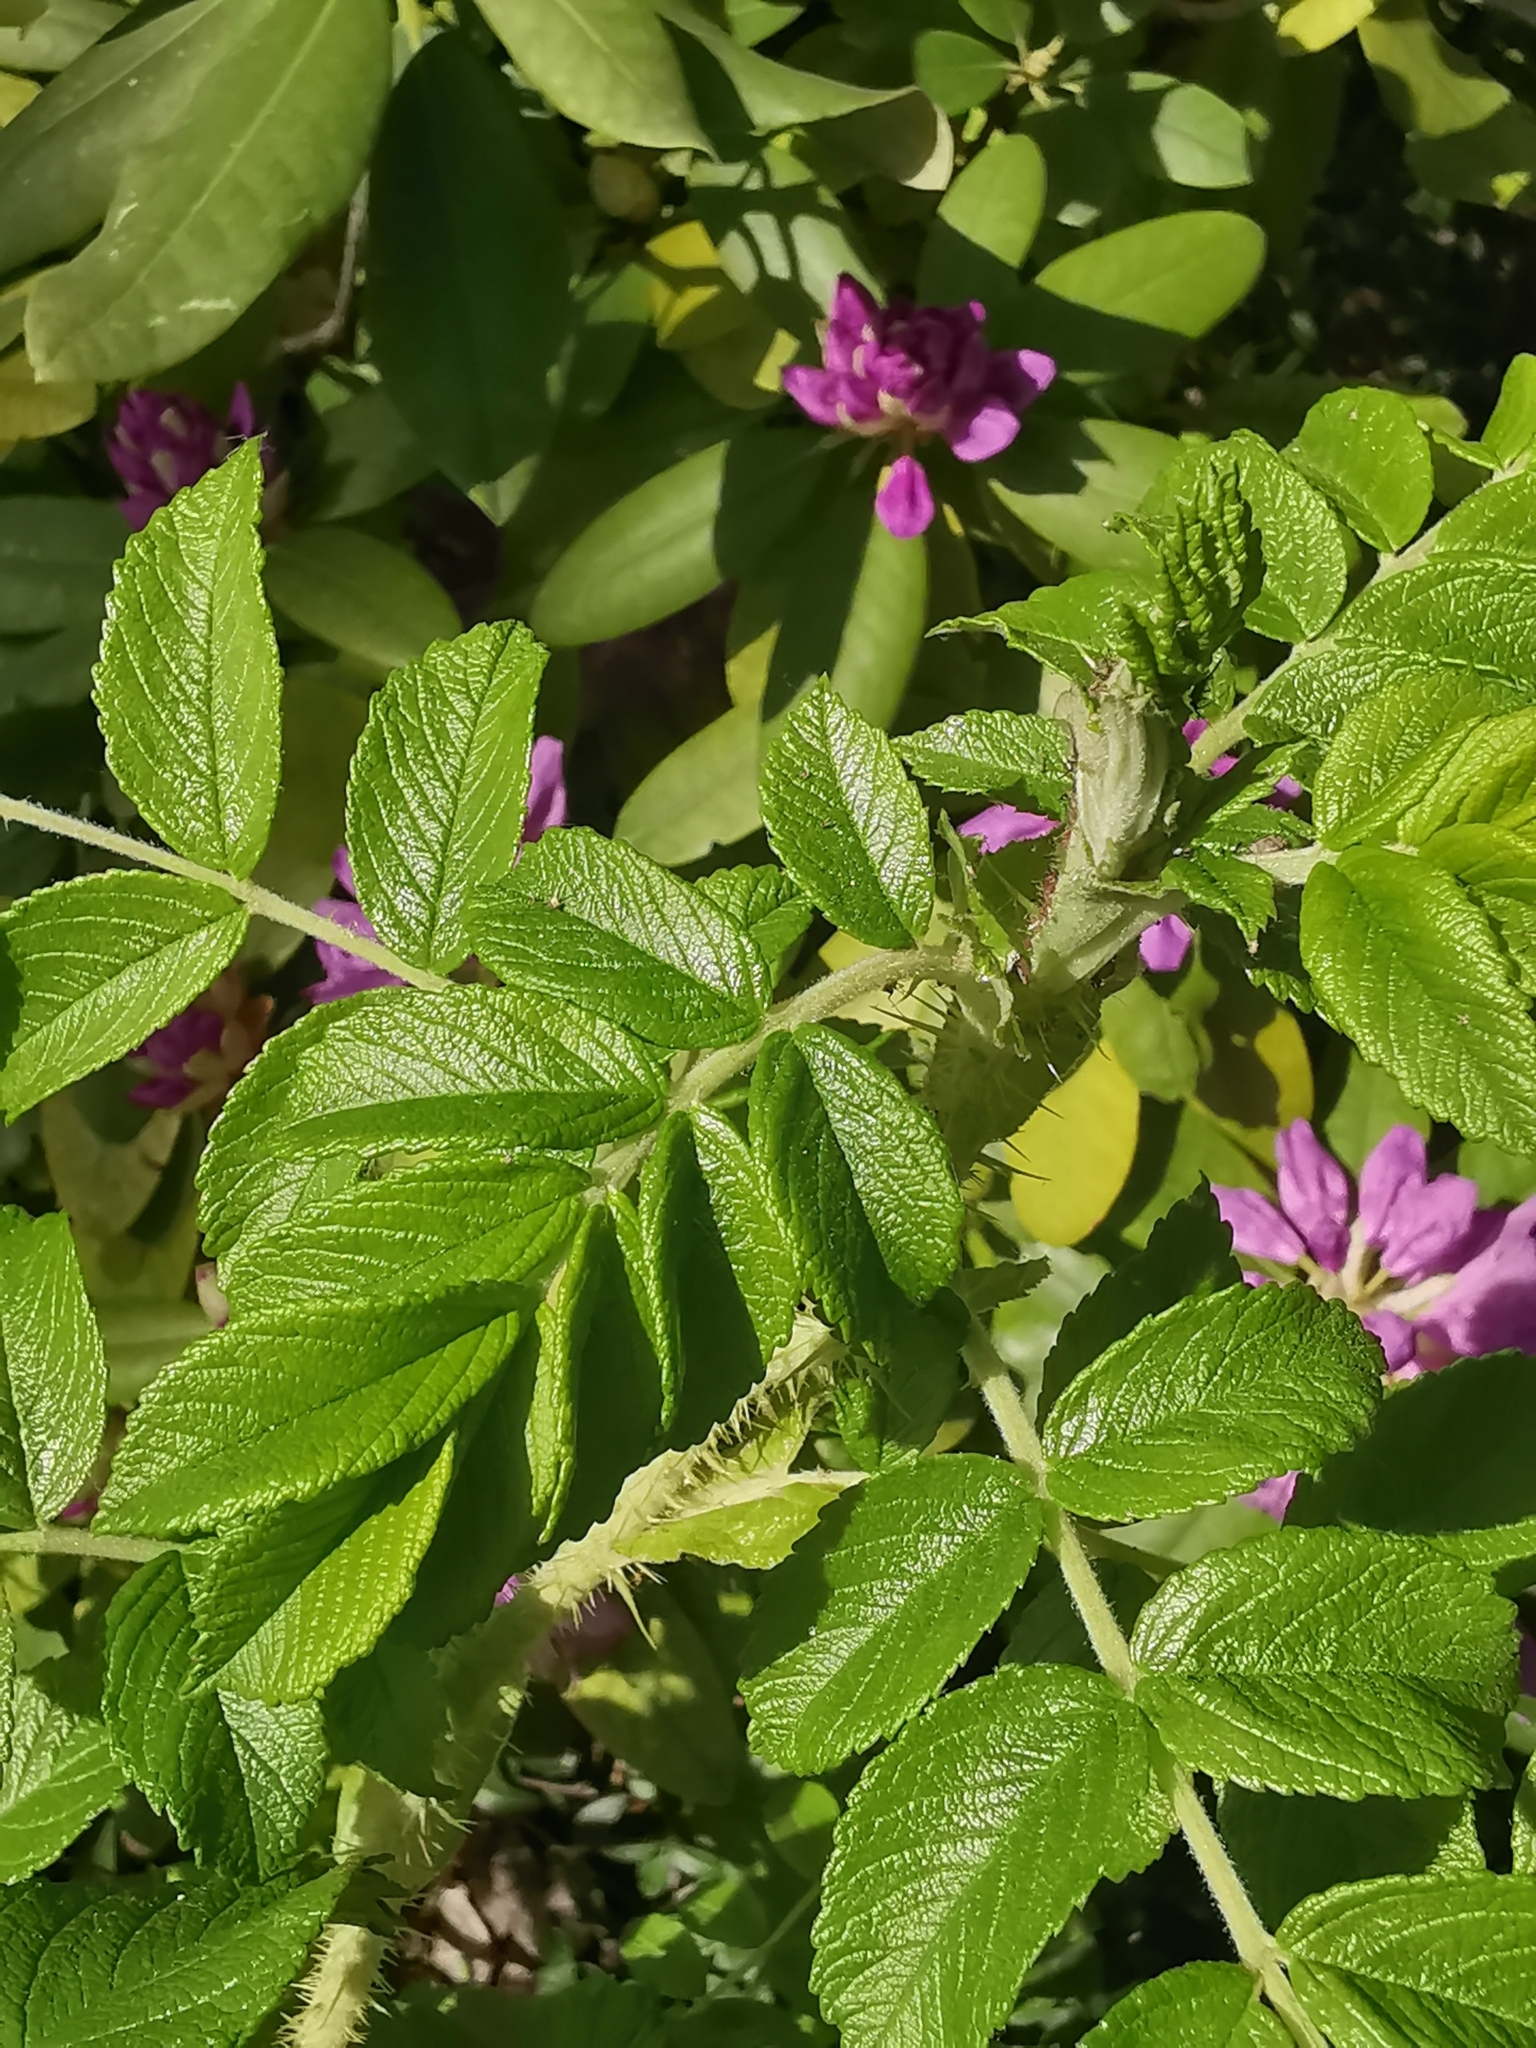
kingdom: Animalia
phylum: Arthropoda
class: Insecta
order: Hemiptera
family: Aphididae
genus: Macrosiphum
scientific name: Macrosiphum rosae
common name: Rose aphid
